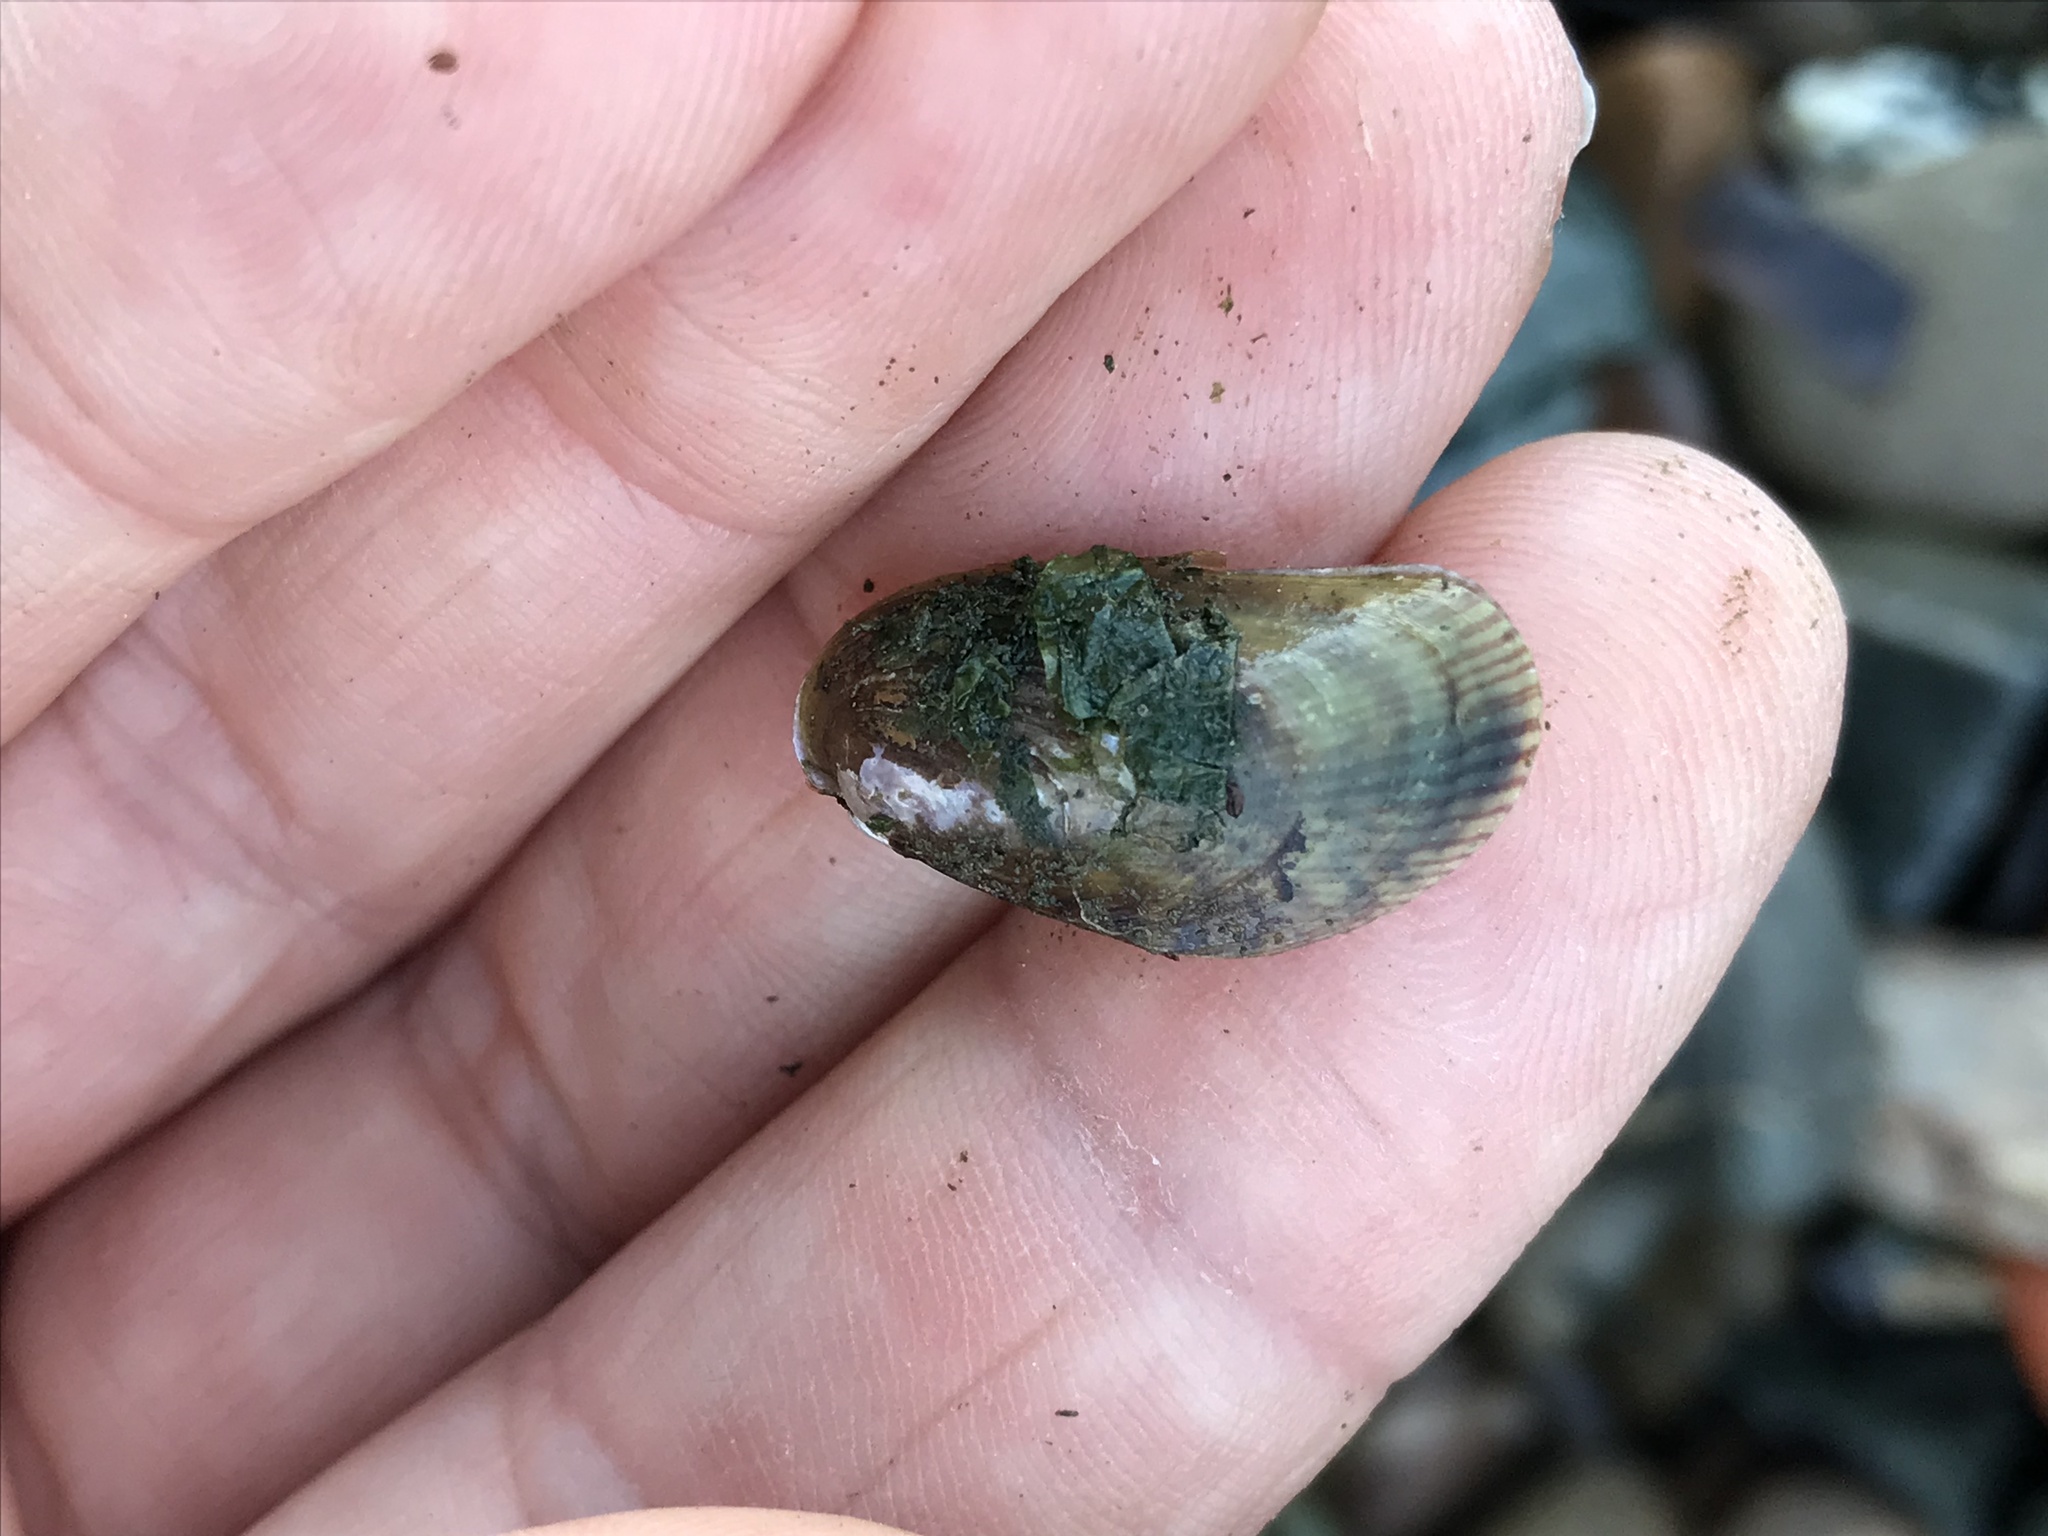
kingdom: Animalia
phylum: Mollusca
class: Bivalvia
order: Mytilida
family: Mytilidae
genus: Arcuatula
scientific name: Arcuatula senhousia
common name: Asian mussel
